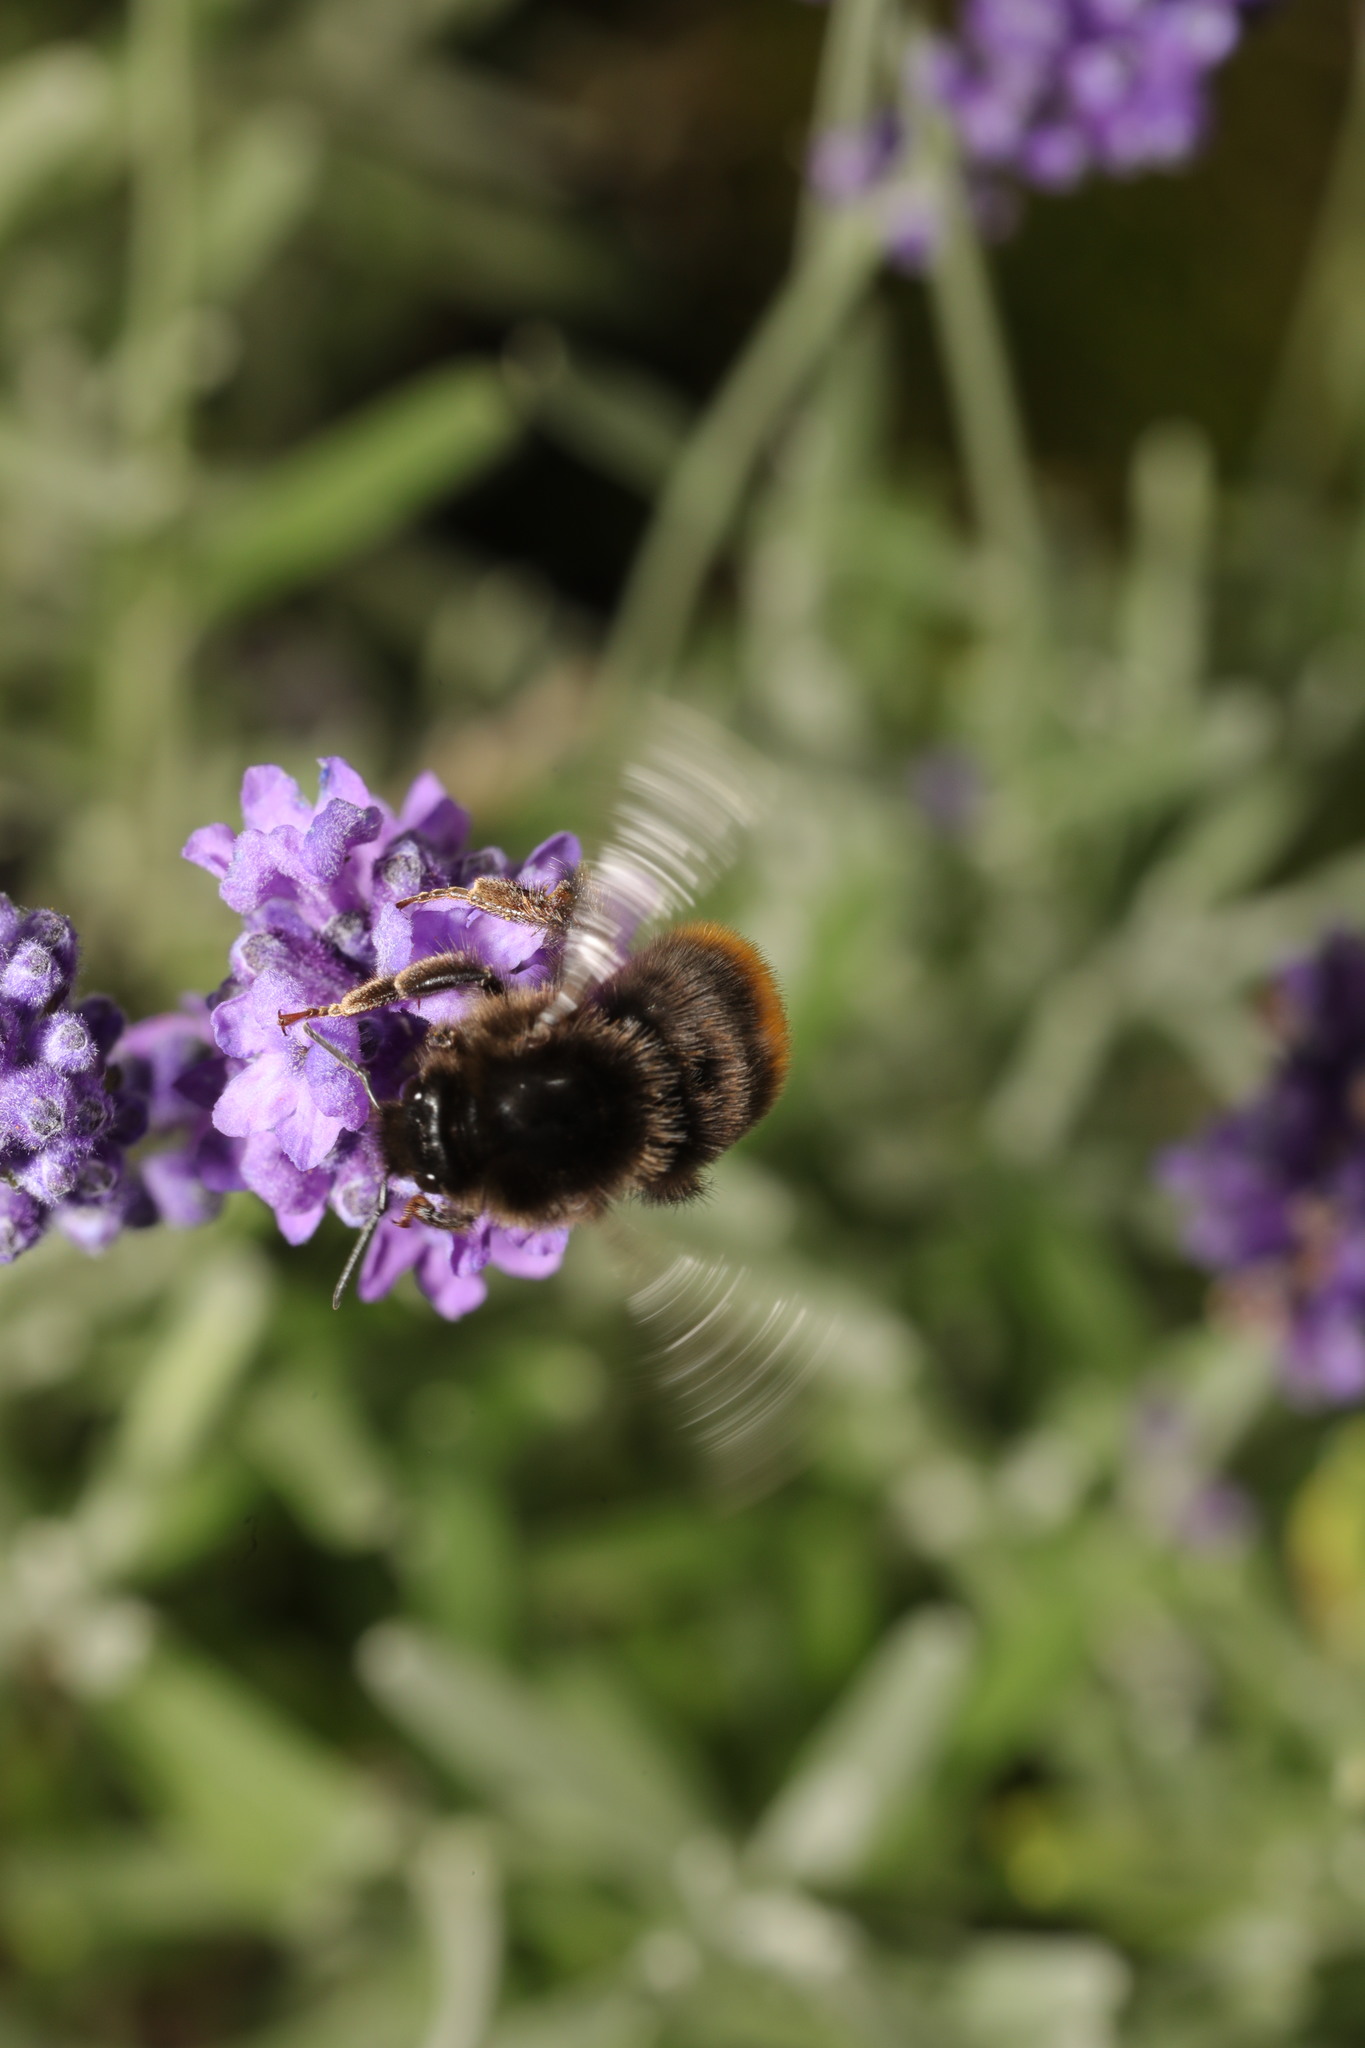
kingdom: Animalia
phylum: Arthropoda
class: Insecta
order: Hymenoptera
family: Apidae
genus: Bombus
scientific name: Bombus lapidarius
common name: Large red-tailed humble-bee
